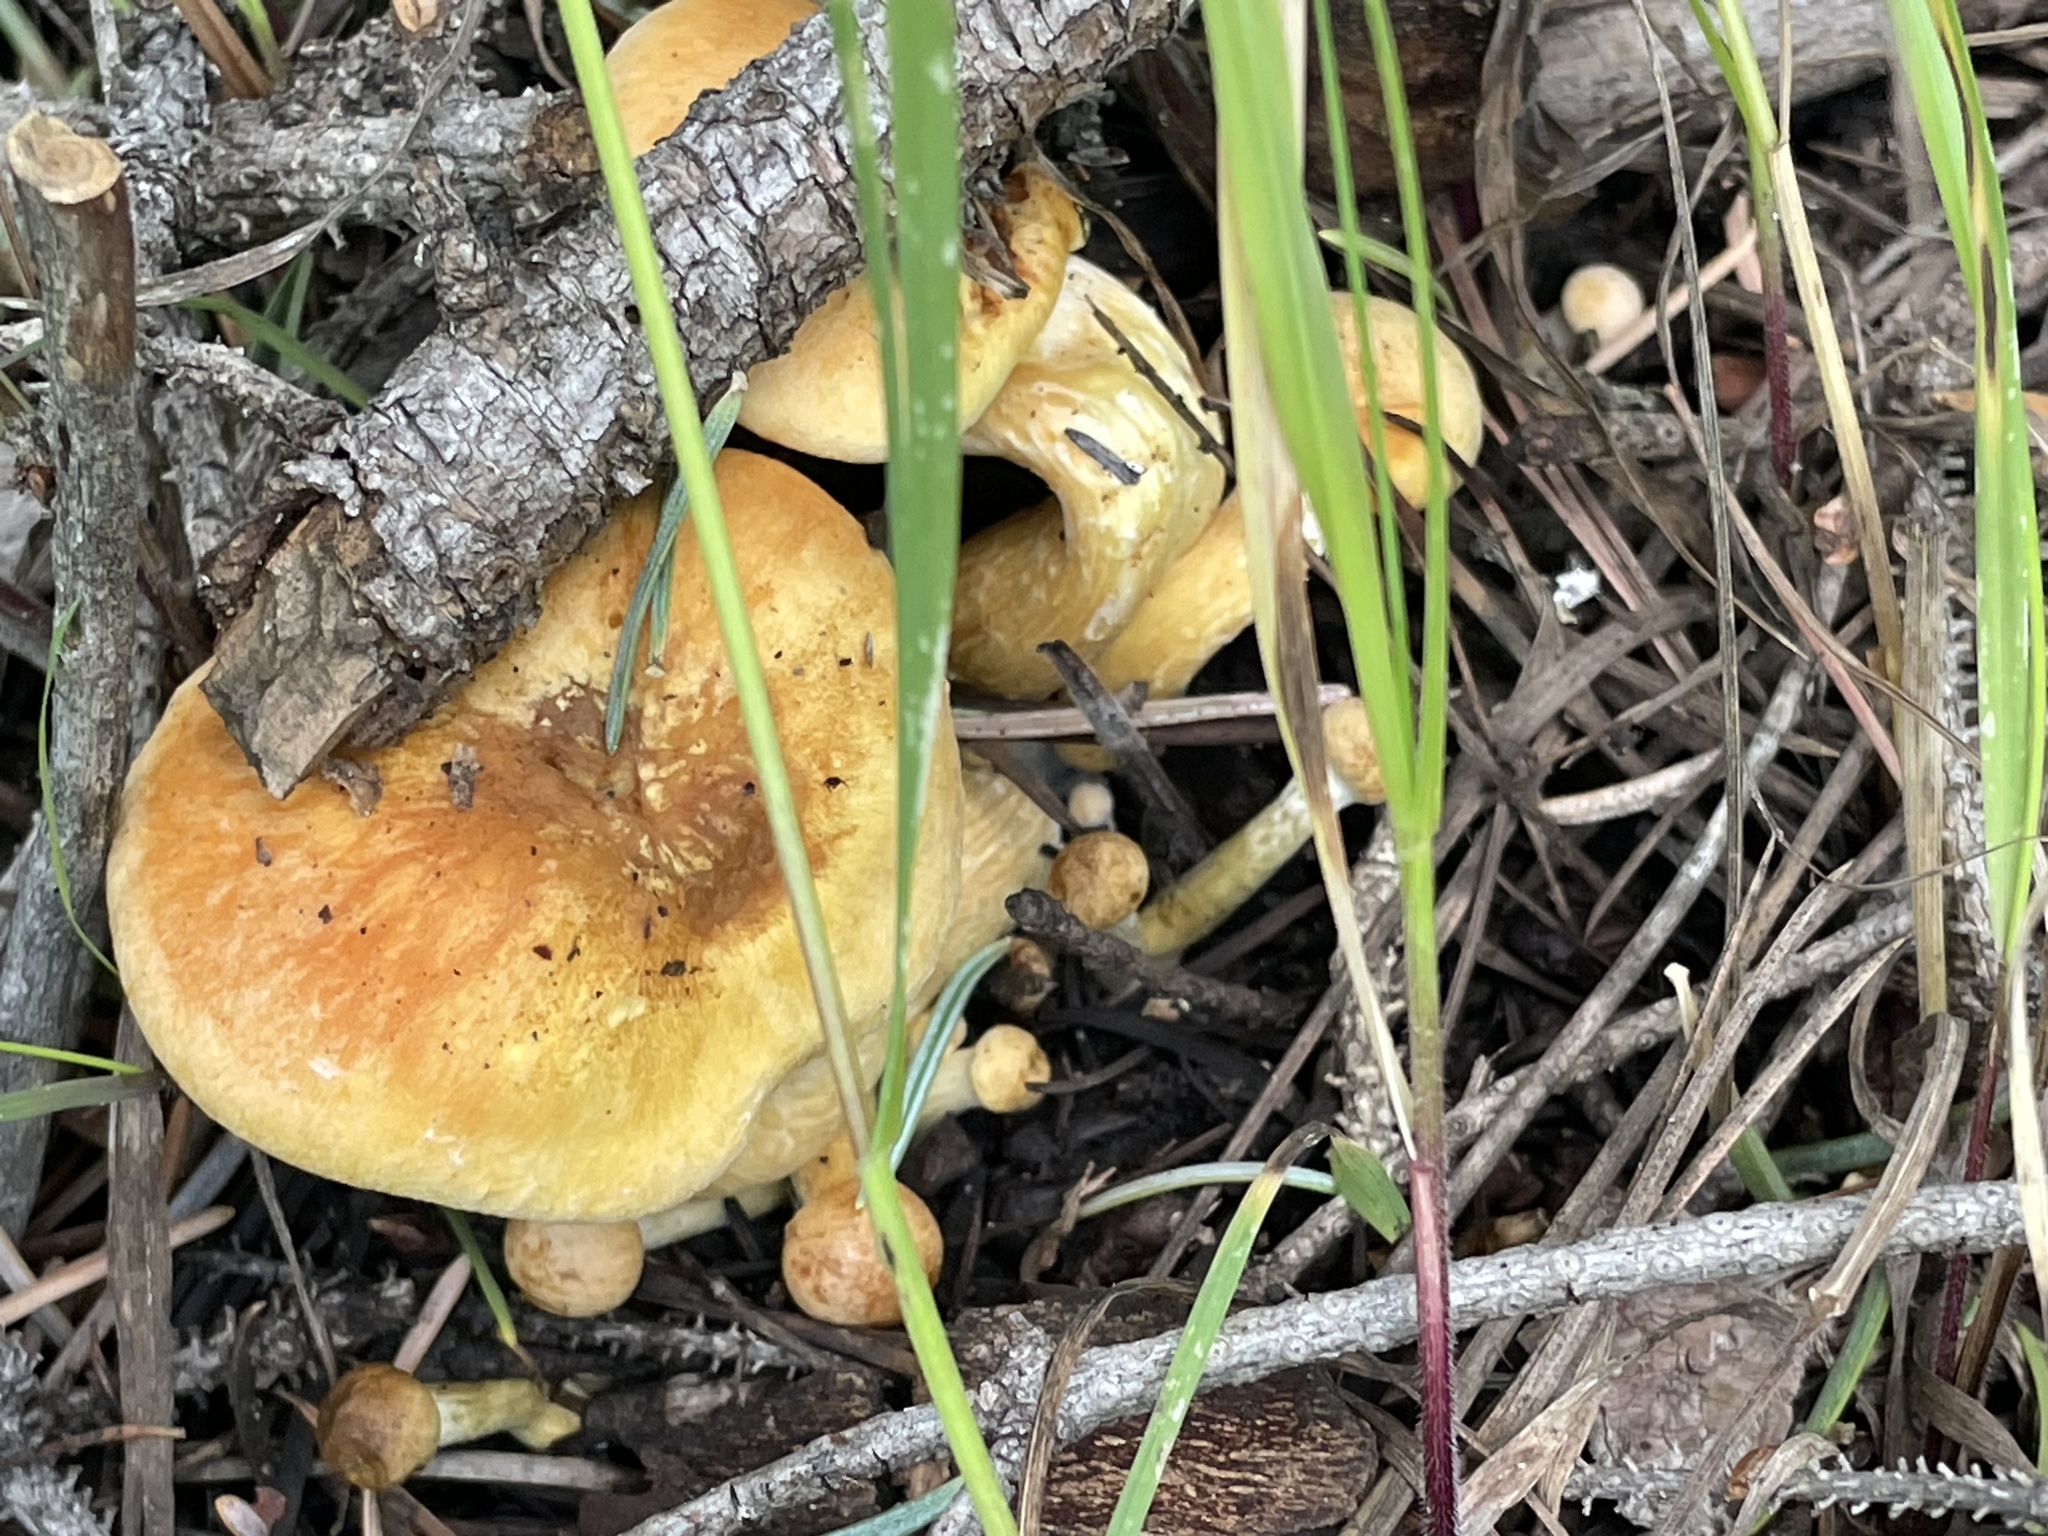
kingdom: Fungi
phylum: Basidiomycota
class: Agaricomycetes
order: Agaricales
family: Hymenogastraceae
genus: Gymnopilus
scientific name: Gymnopilus ventricosus
